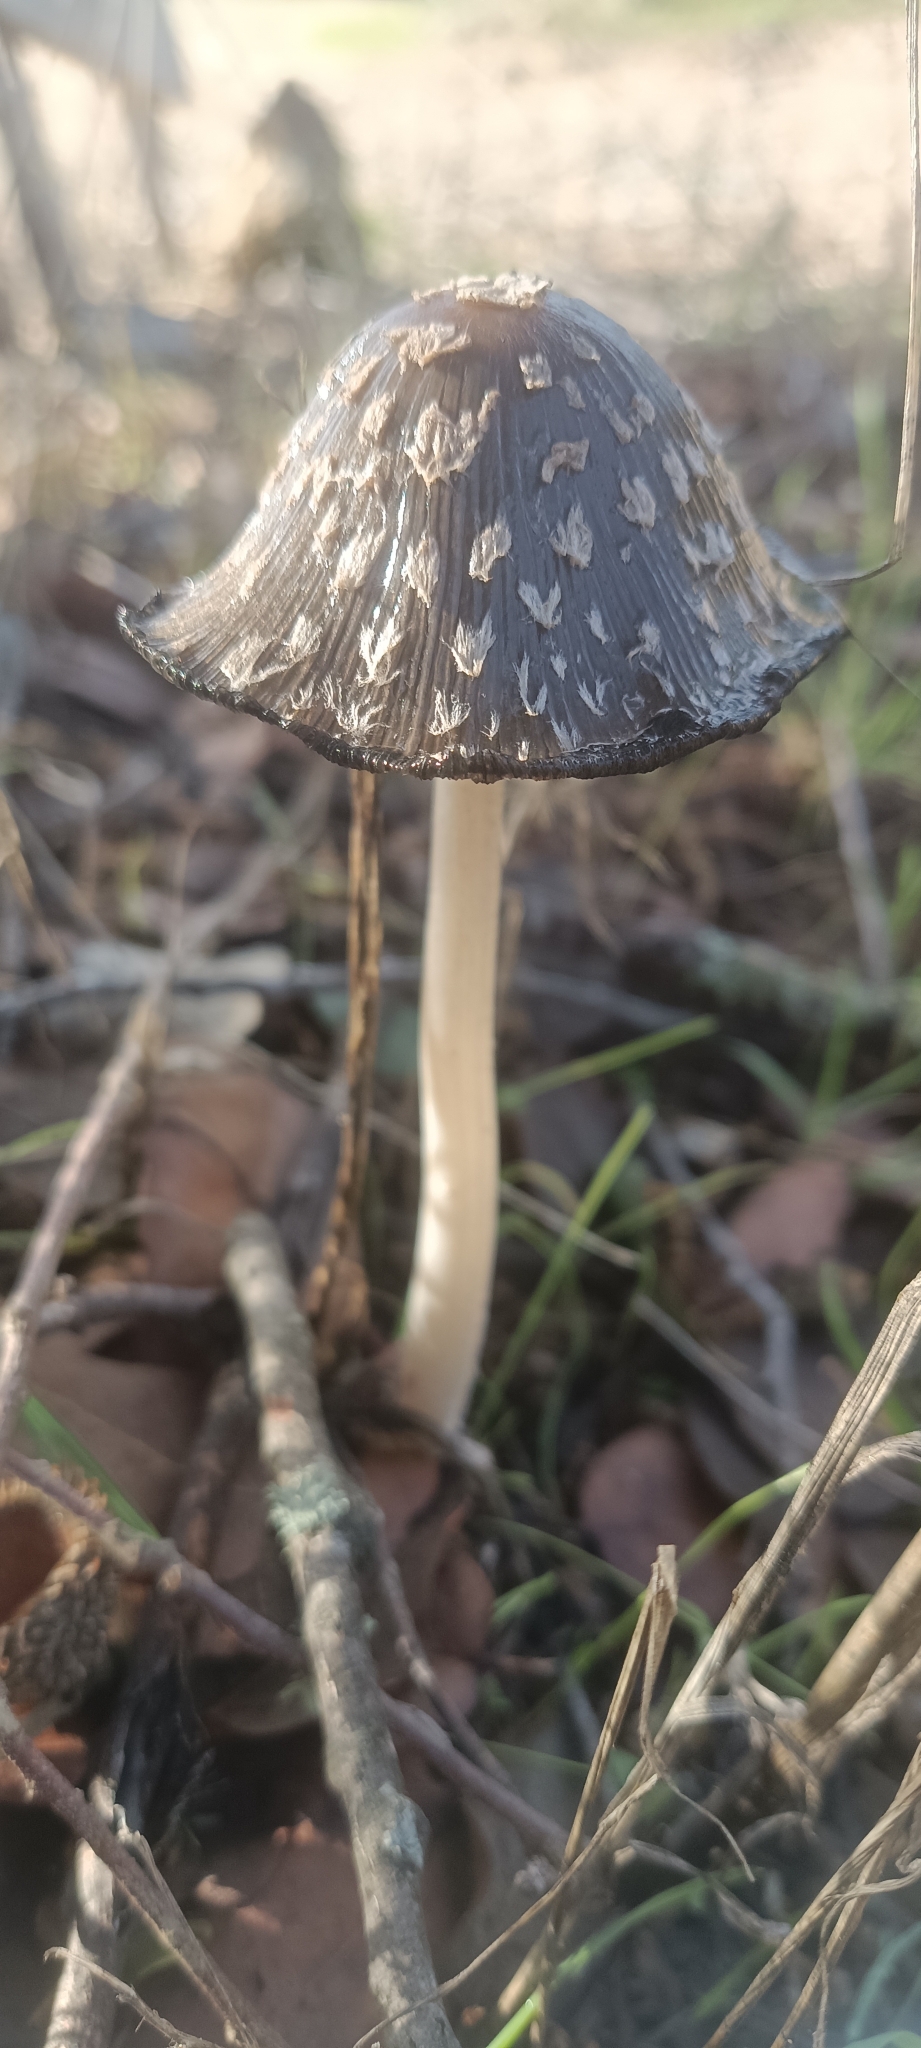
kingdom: Fungi
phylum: Basidiomycota
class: Agaricomycetes
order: Agaricales
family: Psathyrellaceae
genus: Coprinopsis
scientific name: Coprinopsis picacea
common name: Magpie inkcap
